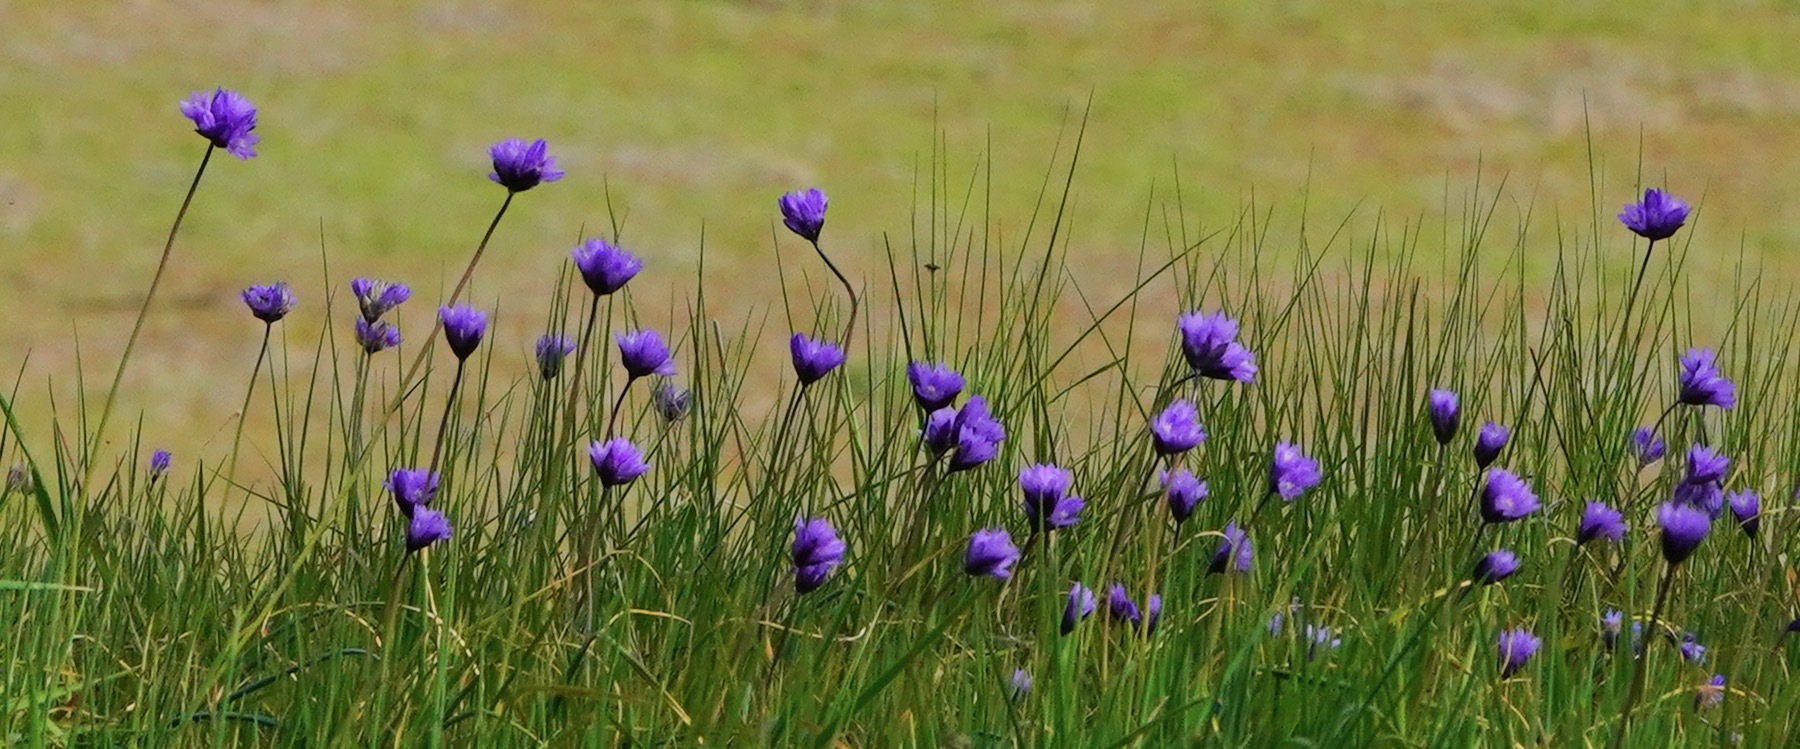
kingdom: Plantae
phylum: Tracheophyta
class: Liliopsida
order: Asparagales
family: Asparagaceae
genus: Dipterostemon
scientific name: Dipterostemon capitatus
